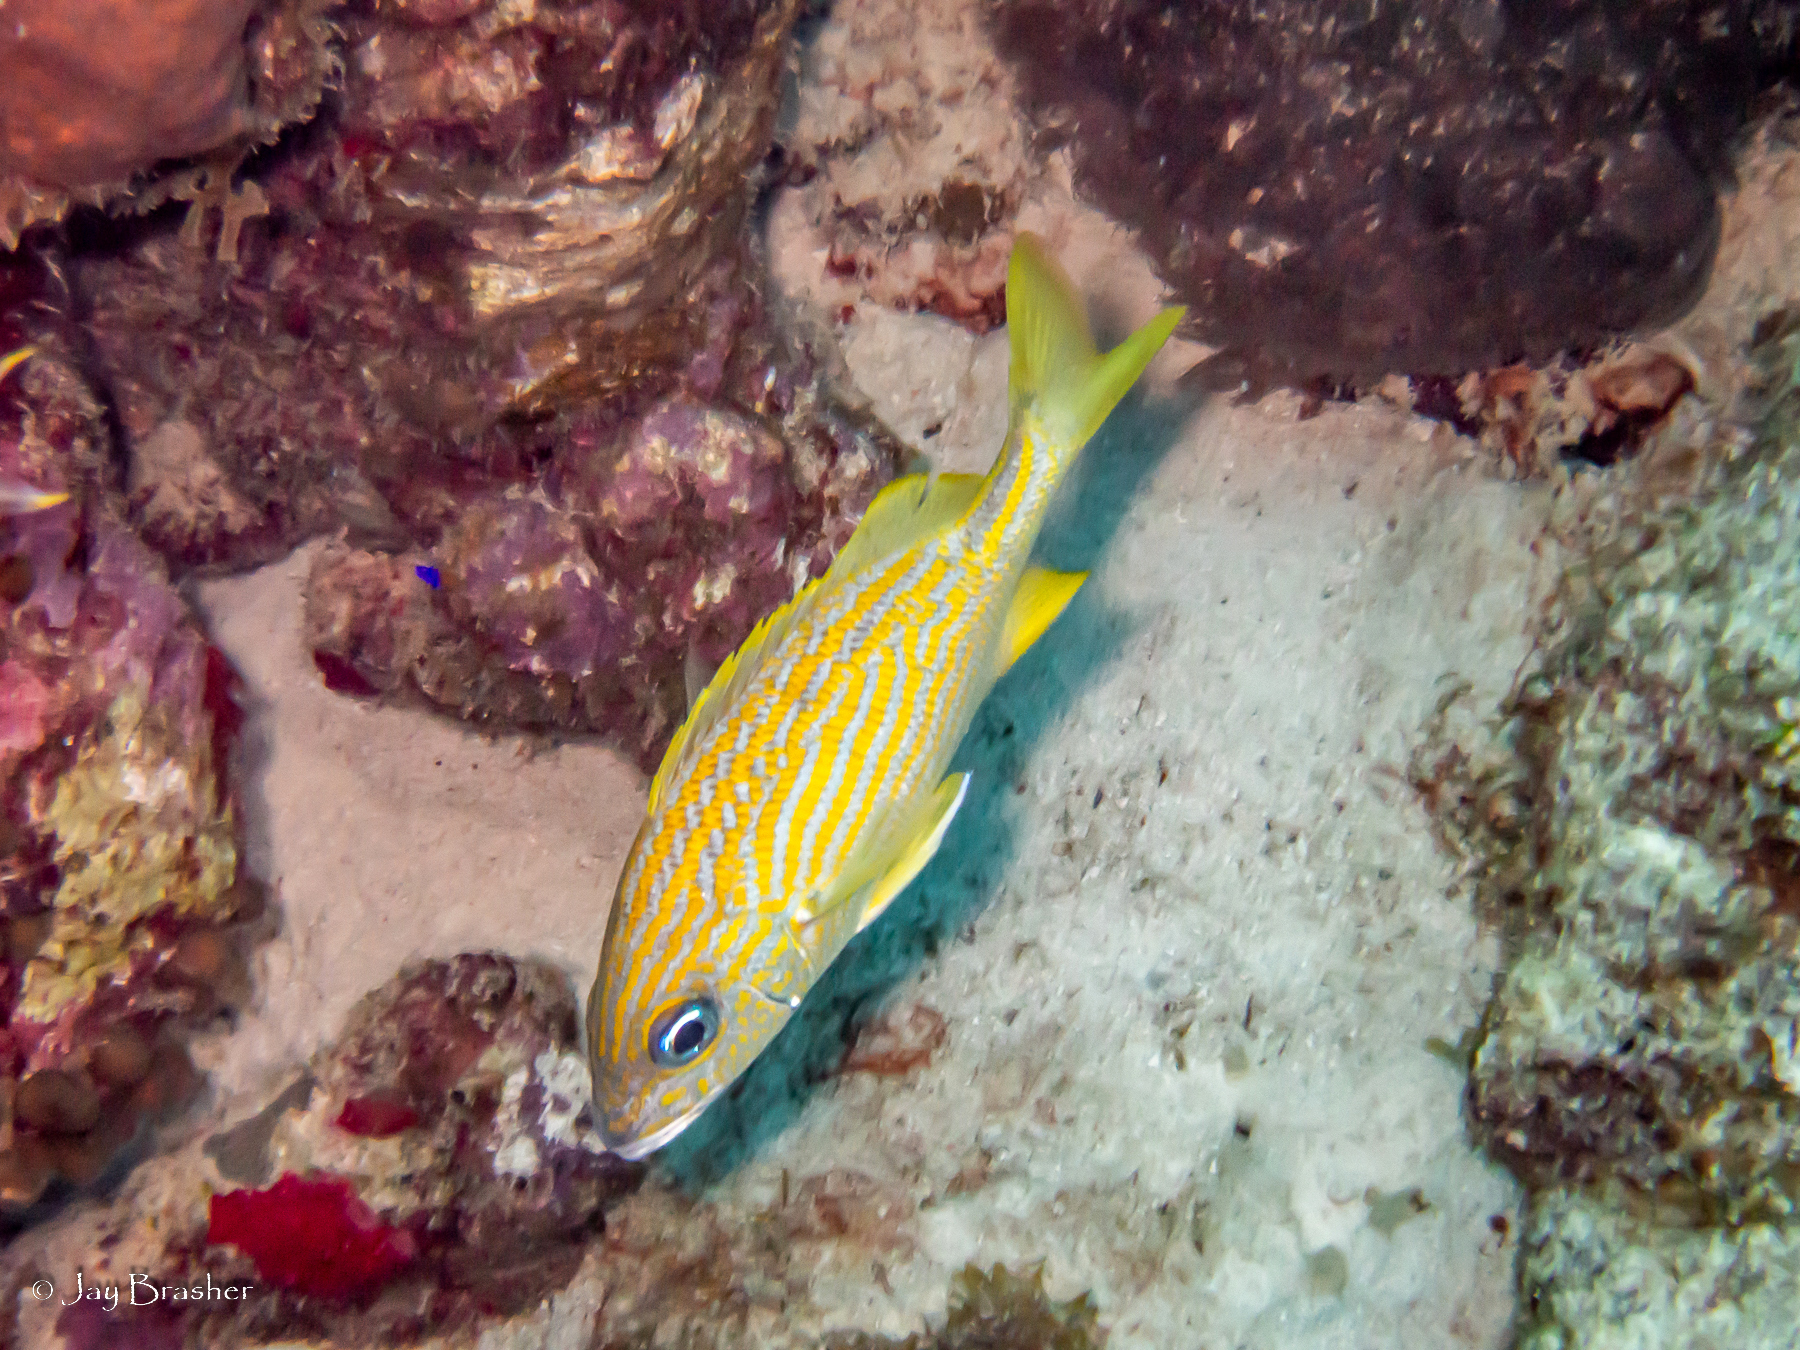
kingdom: Animalia
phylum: Chordata
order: Perciformes
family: Haemulidae
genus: Haemulon
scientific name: Haemulon flavolineatum
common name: French grunt
